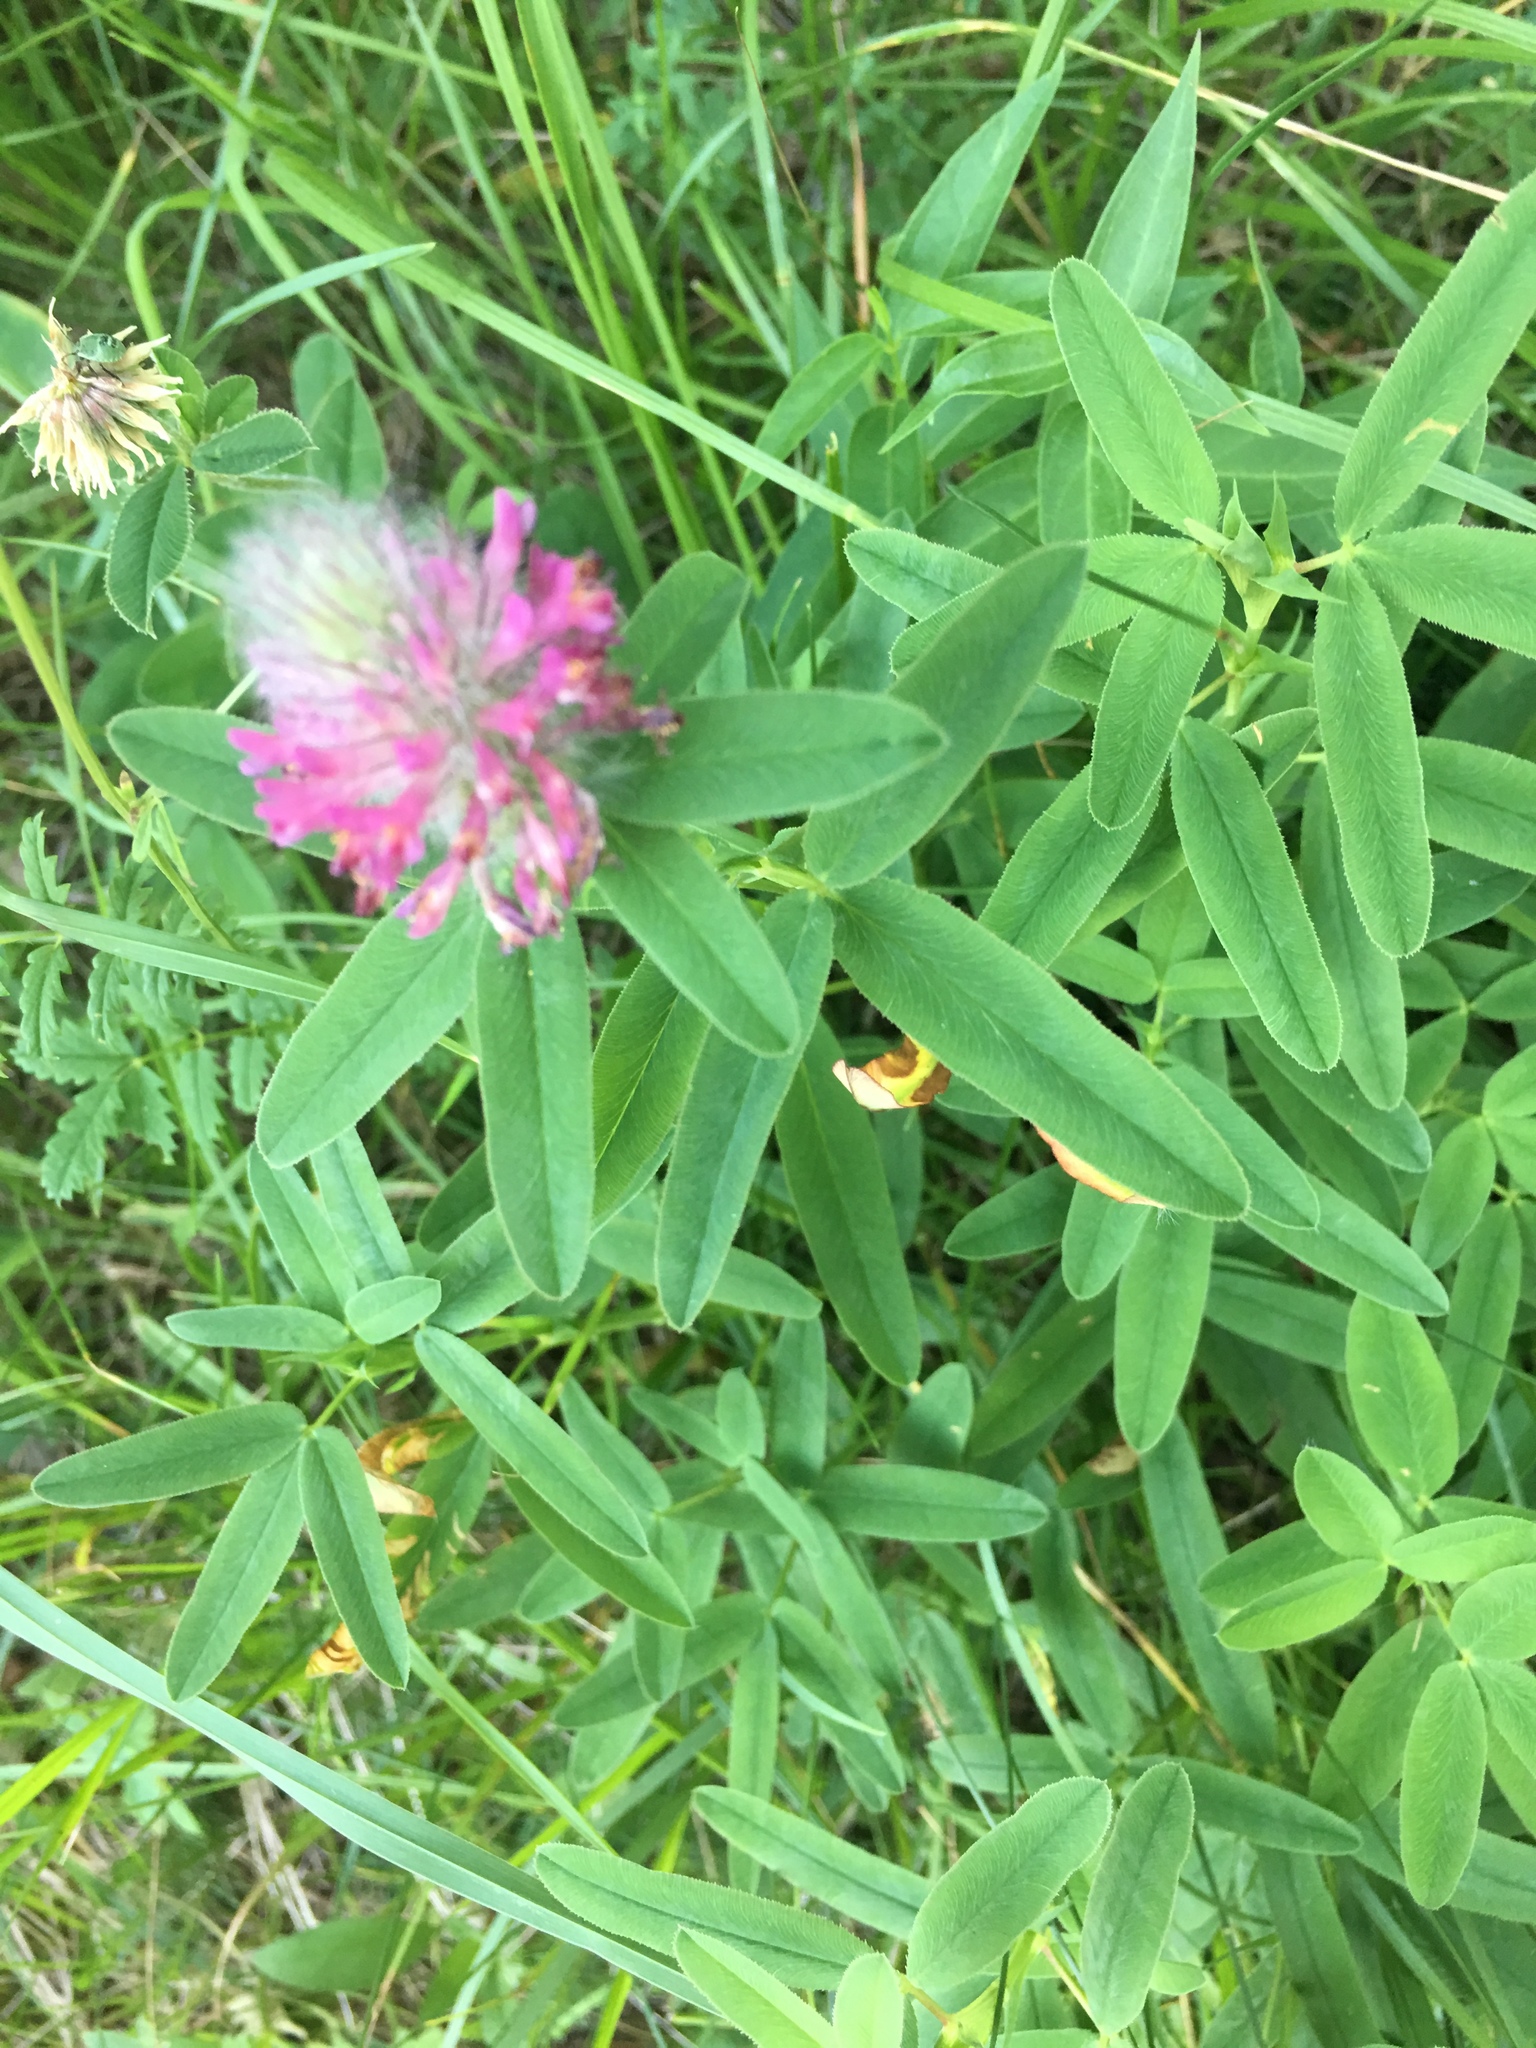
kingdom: Plantae
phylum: Tracheophyta
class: Magnoliopsida
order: Fabales
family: Fabaceae
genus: Trifolium
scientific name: Trifolium rubens
